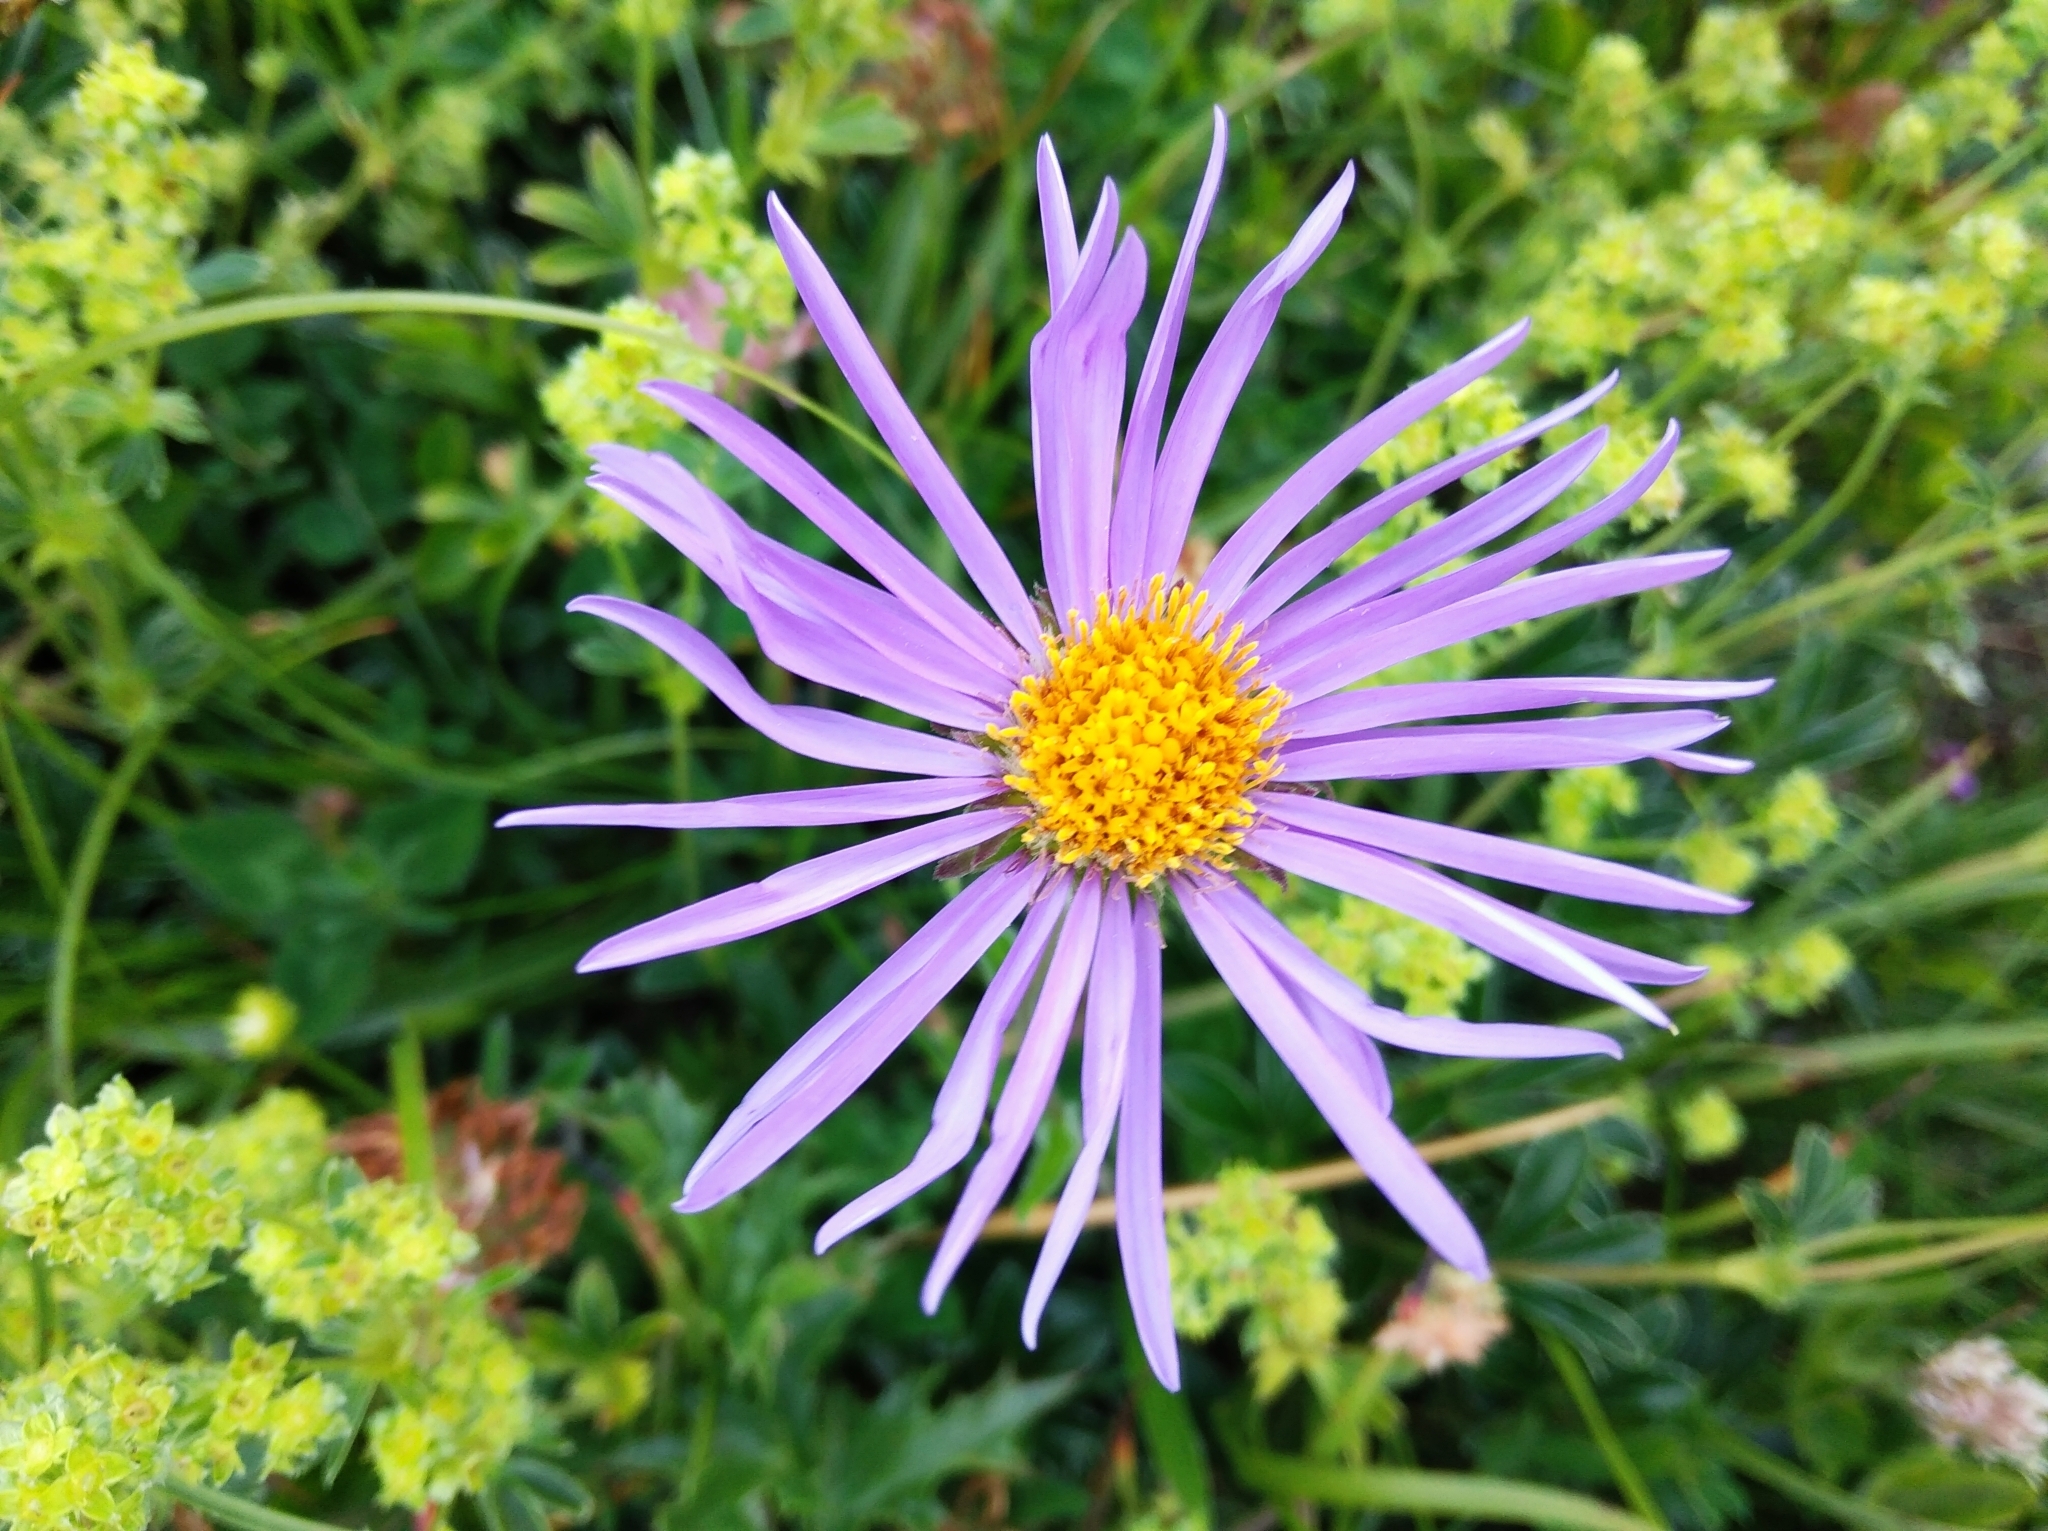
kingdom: Plantae
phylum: Tracheophyta
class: Magnoliopsida
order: Asterales
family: Asteraceae
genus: Aster
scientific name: Aster alpinus
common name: Alpine aster
